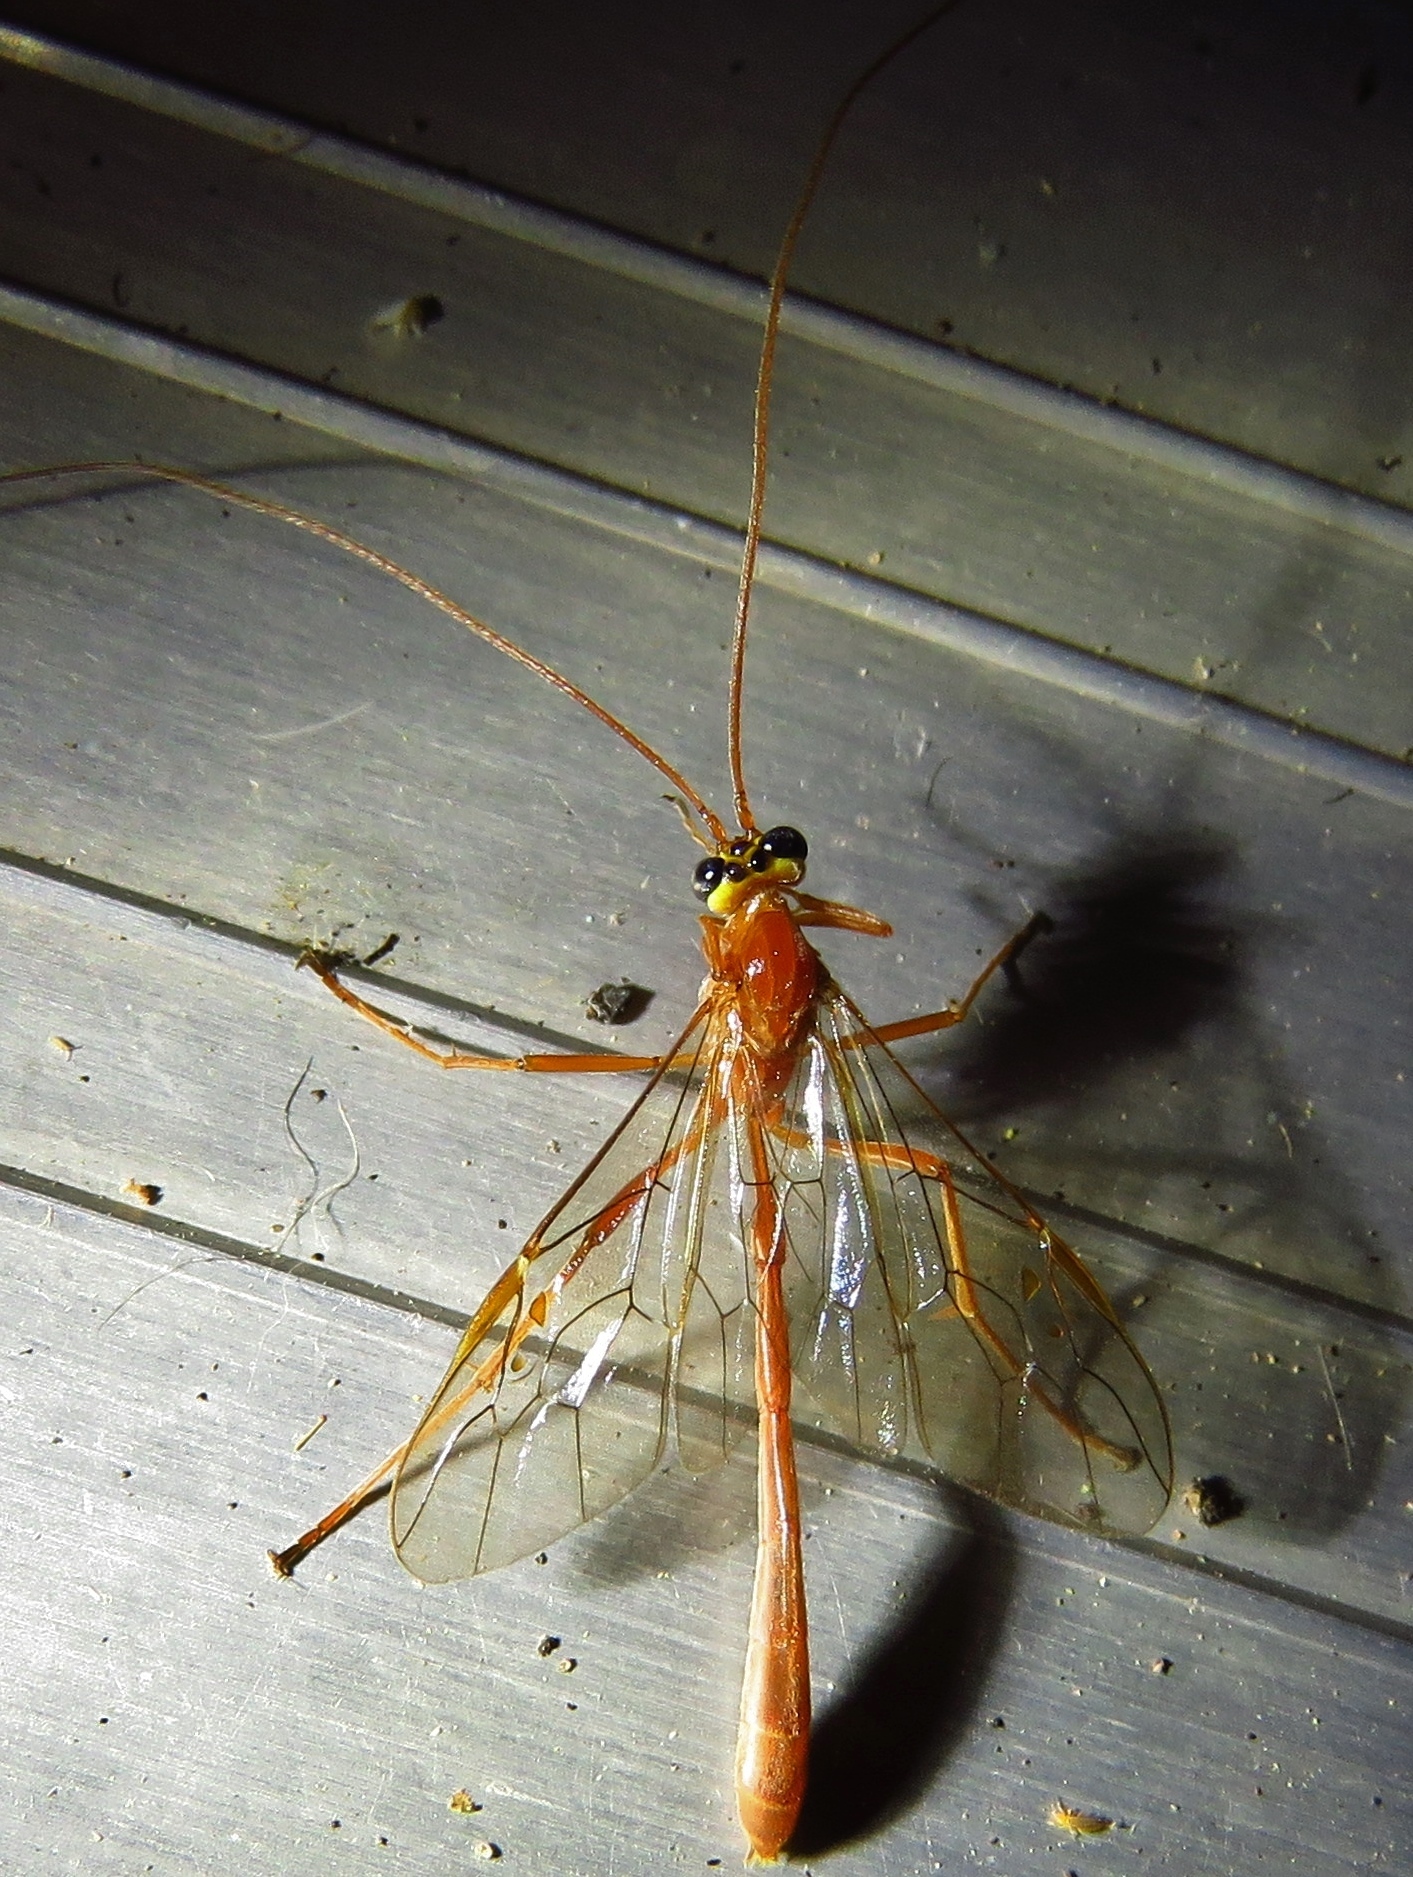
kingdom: Animalia
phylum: Arthropoda
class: Insecta
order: Hymenoptera
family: Ichneumonidae
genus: Enicospilus
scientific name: Enicospilus purgatus
